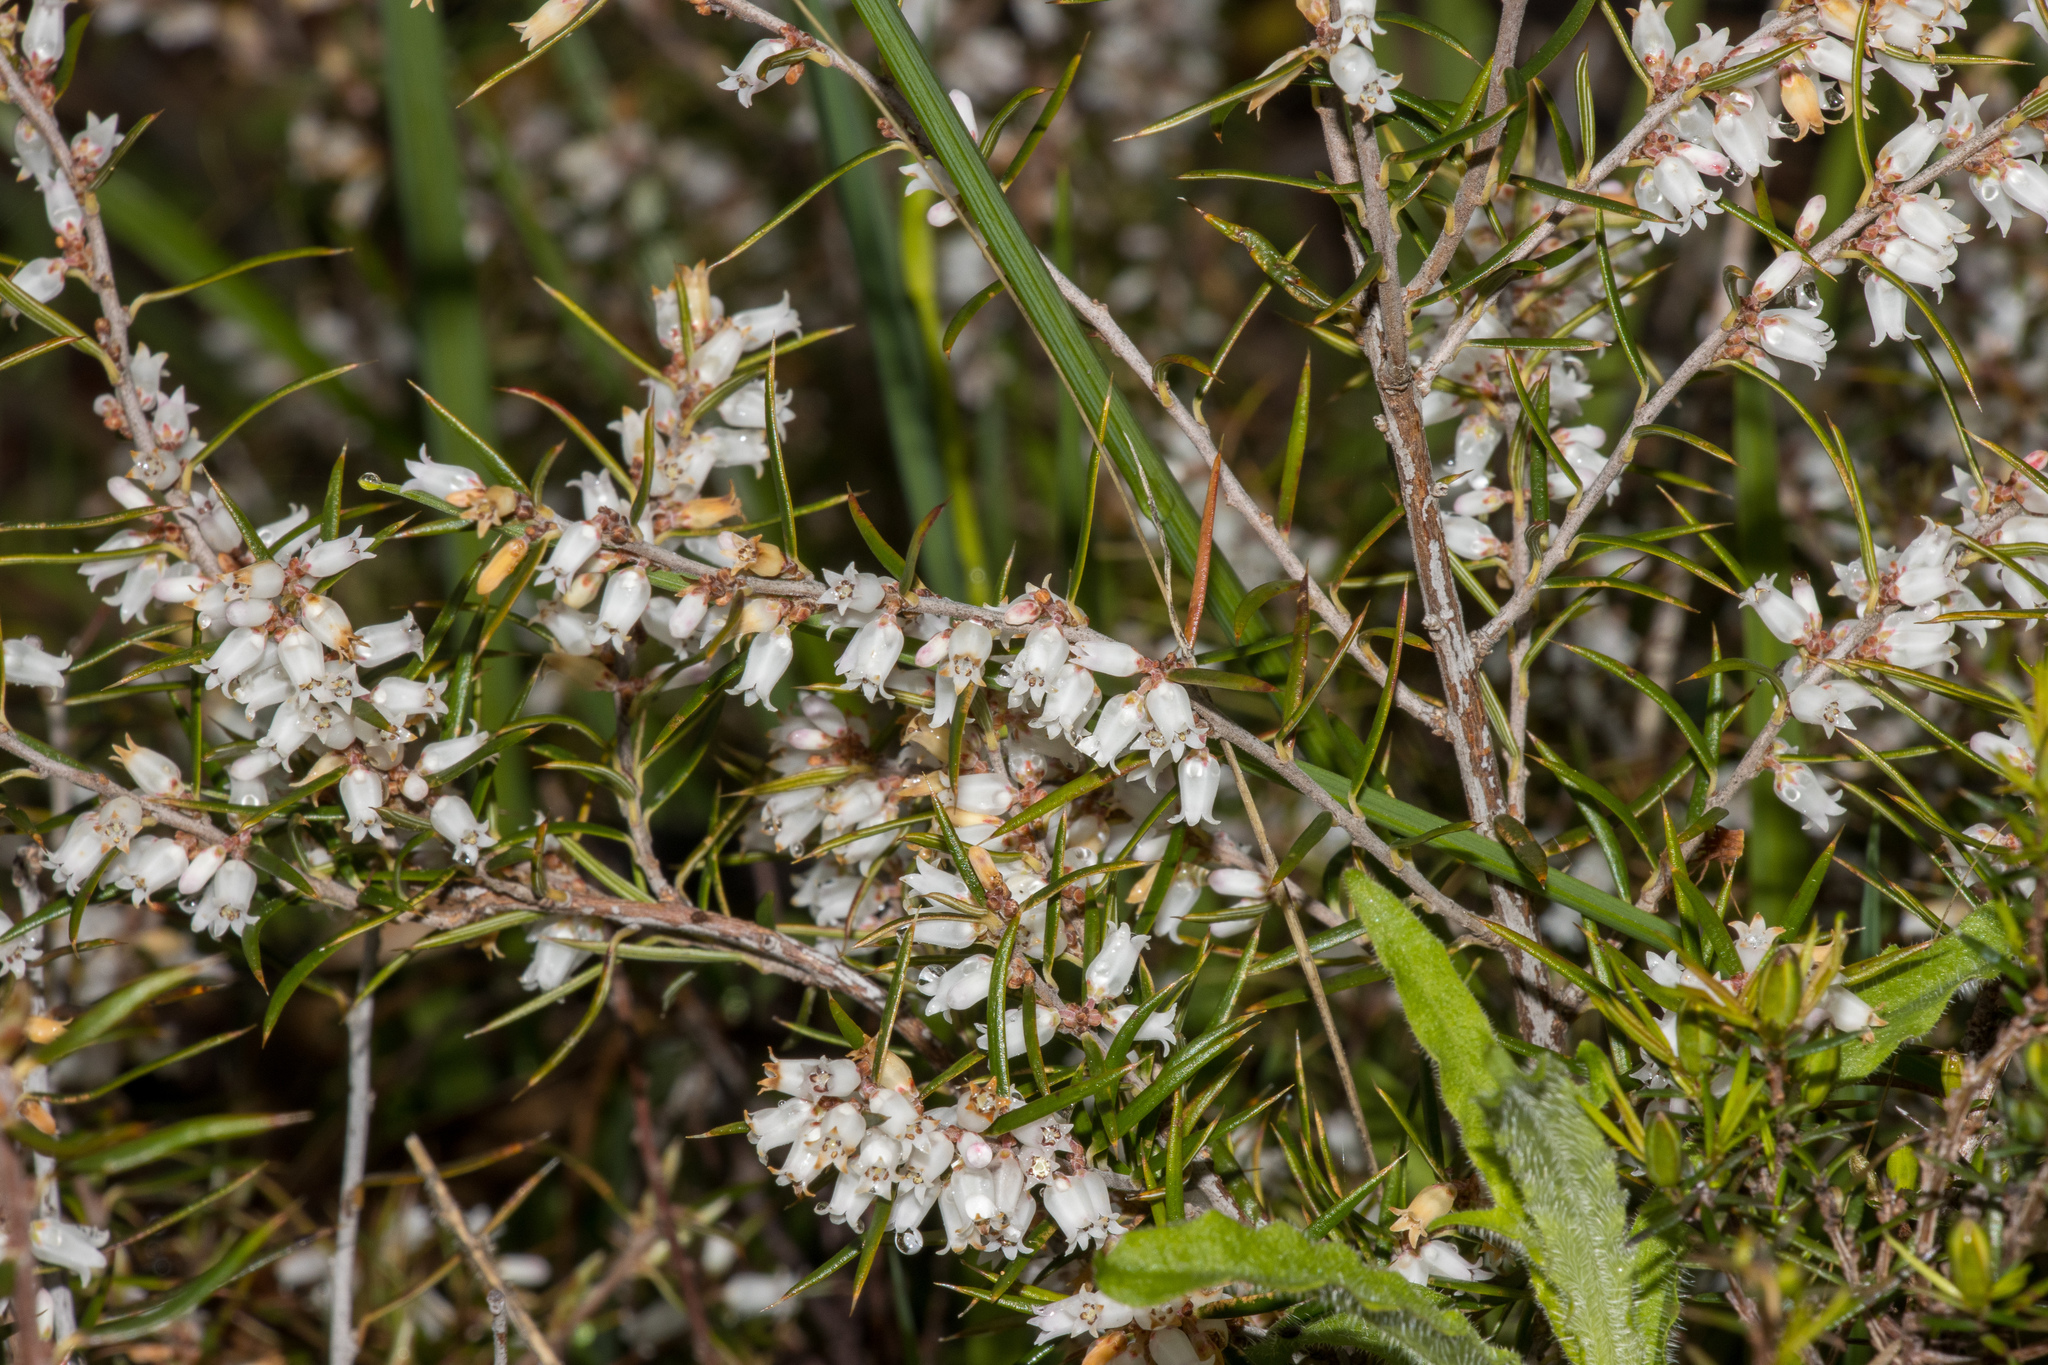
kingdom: Plantae
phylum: Tracheophyta
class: Magnoliopsida
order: Ericales
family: Ericaceae
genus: Lissanthe
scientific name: Lissanthe strigosa
